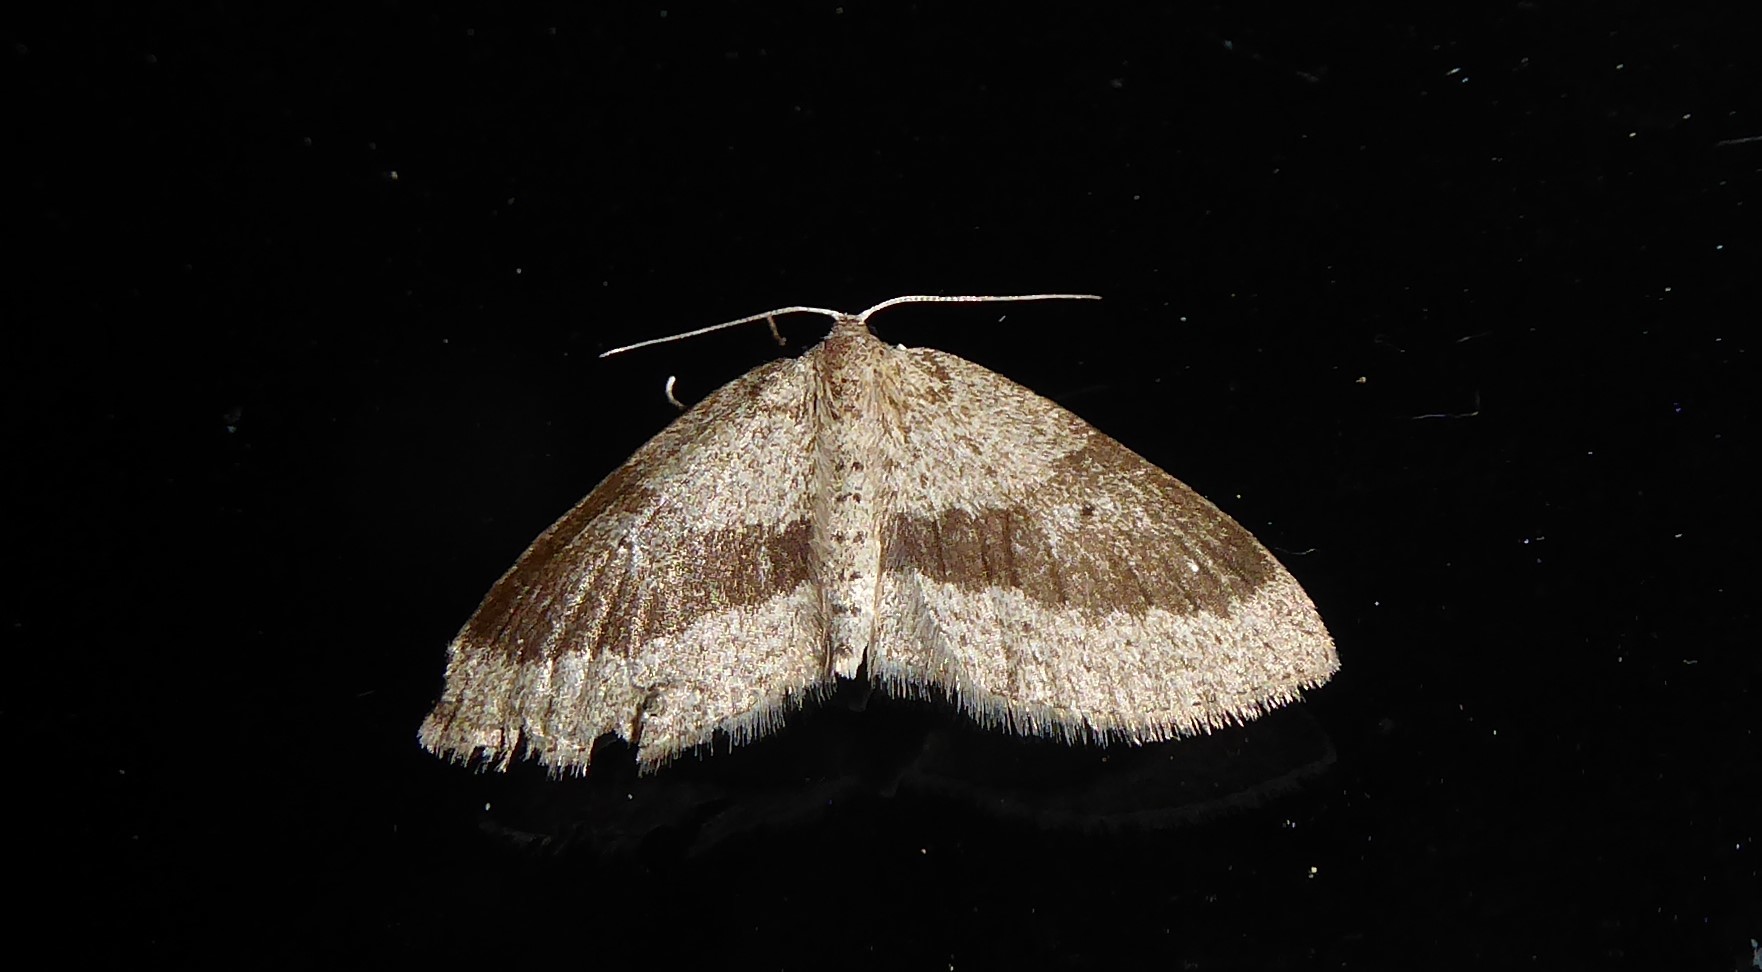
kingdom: Animalia
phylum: Arthropoda
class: Insecta
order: Lepidoptera
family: Geometridae
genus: Poecilasthena
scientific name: Poecilasthena schistaria
